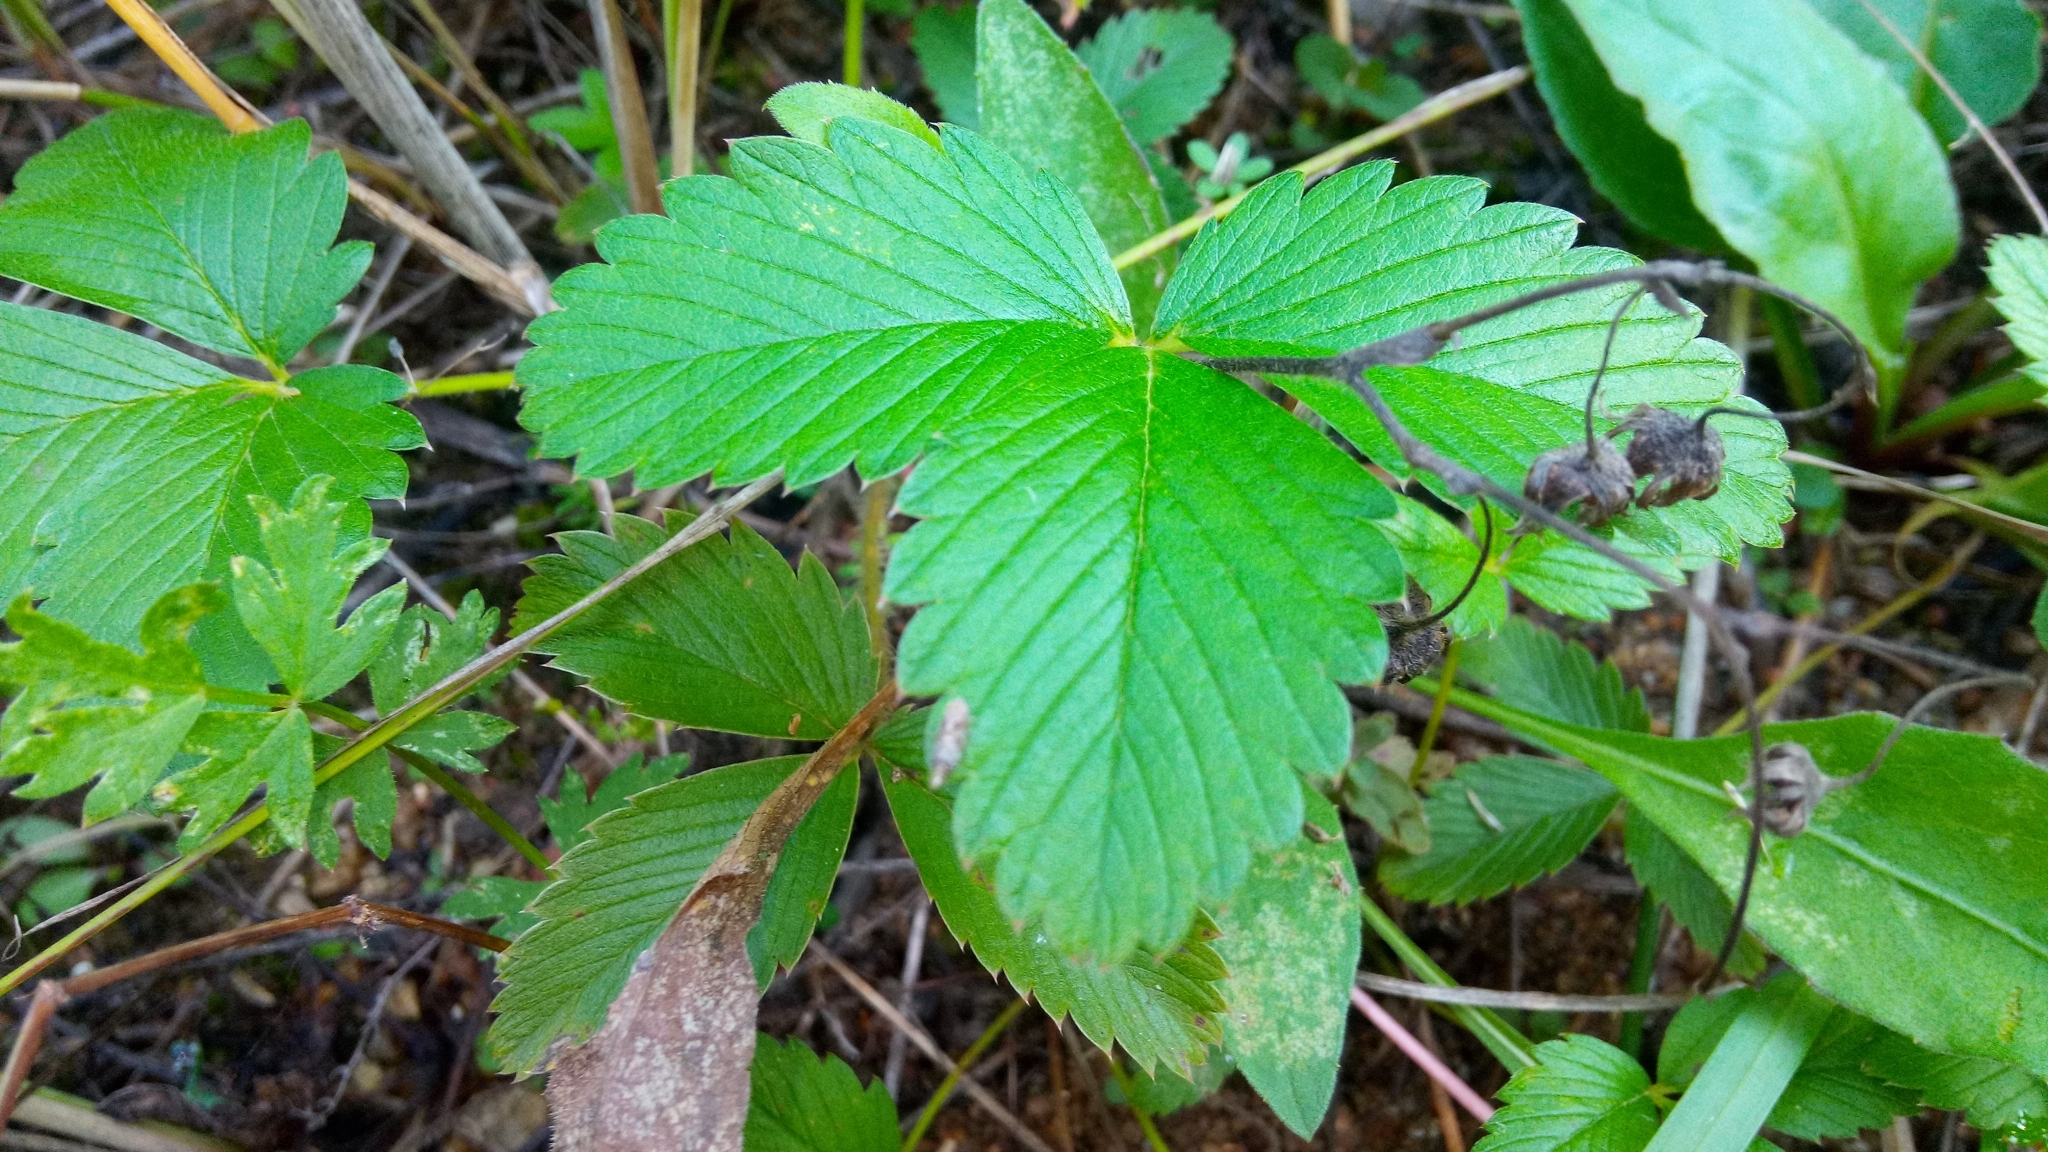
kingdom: Plantae
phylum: Tracheophyta
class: Magnoliopsida
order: Rosales
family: Rosaceae
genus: Fragaria
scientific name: Fragaria viridis
